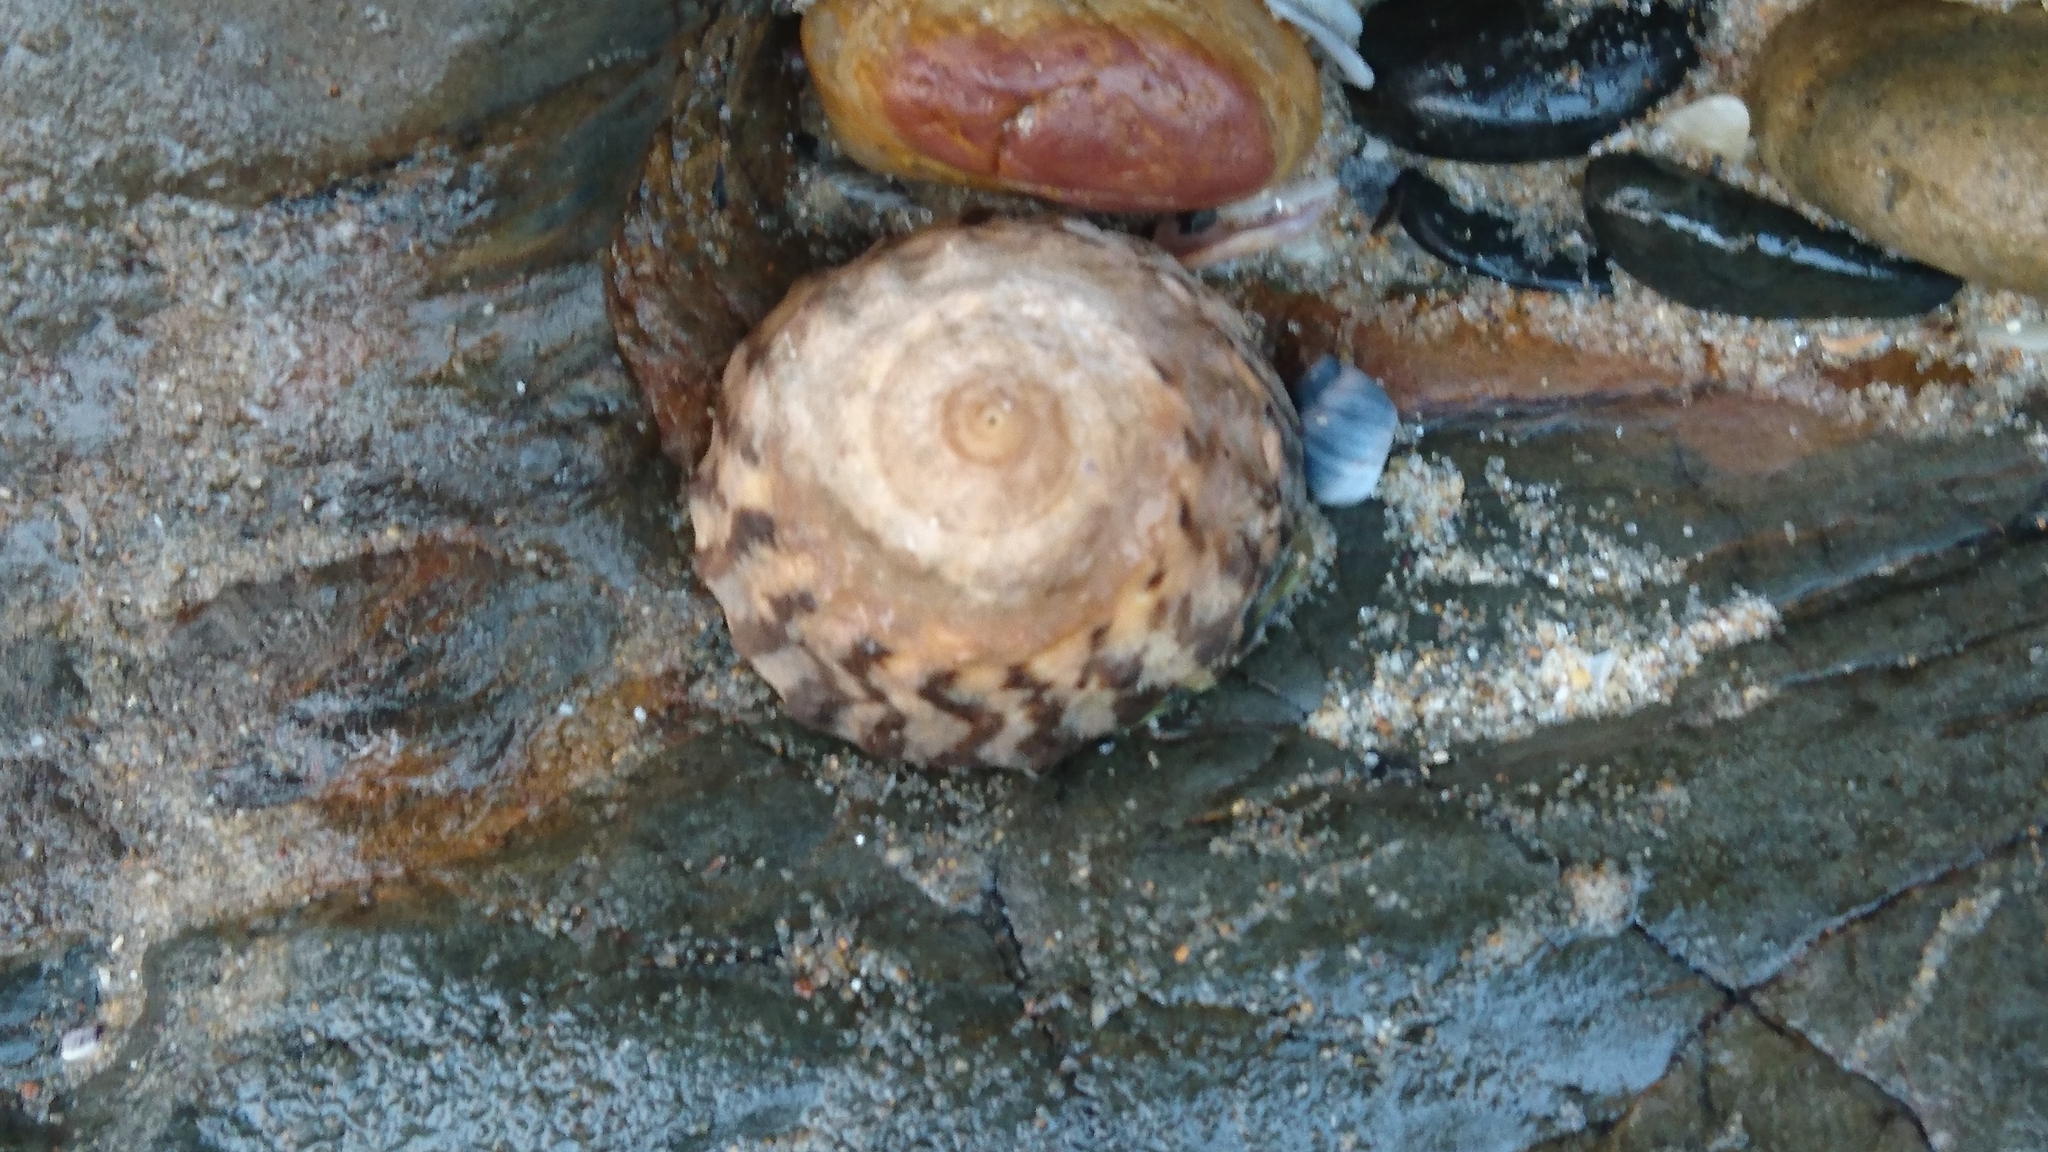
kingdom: Animalia
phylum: Mollusca
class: Gastropoda
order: Littorinimorpha
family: Littorinidae
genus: Bembicium
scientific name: Bembicium nanum
